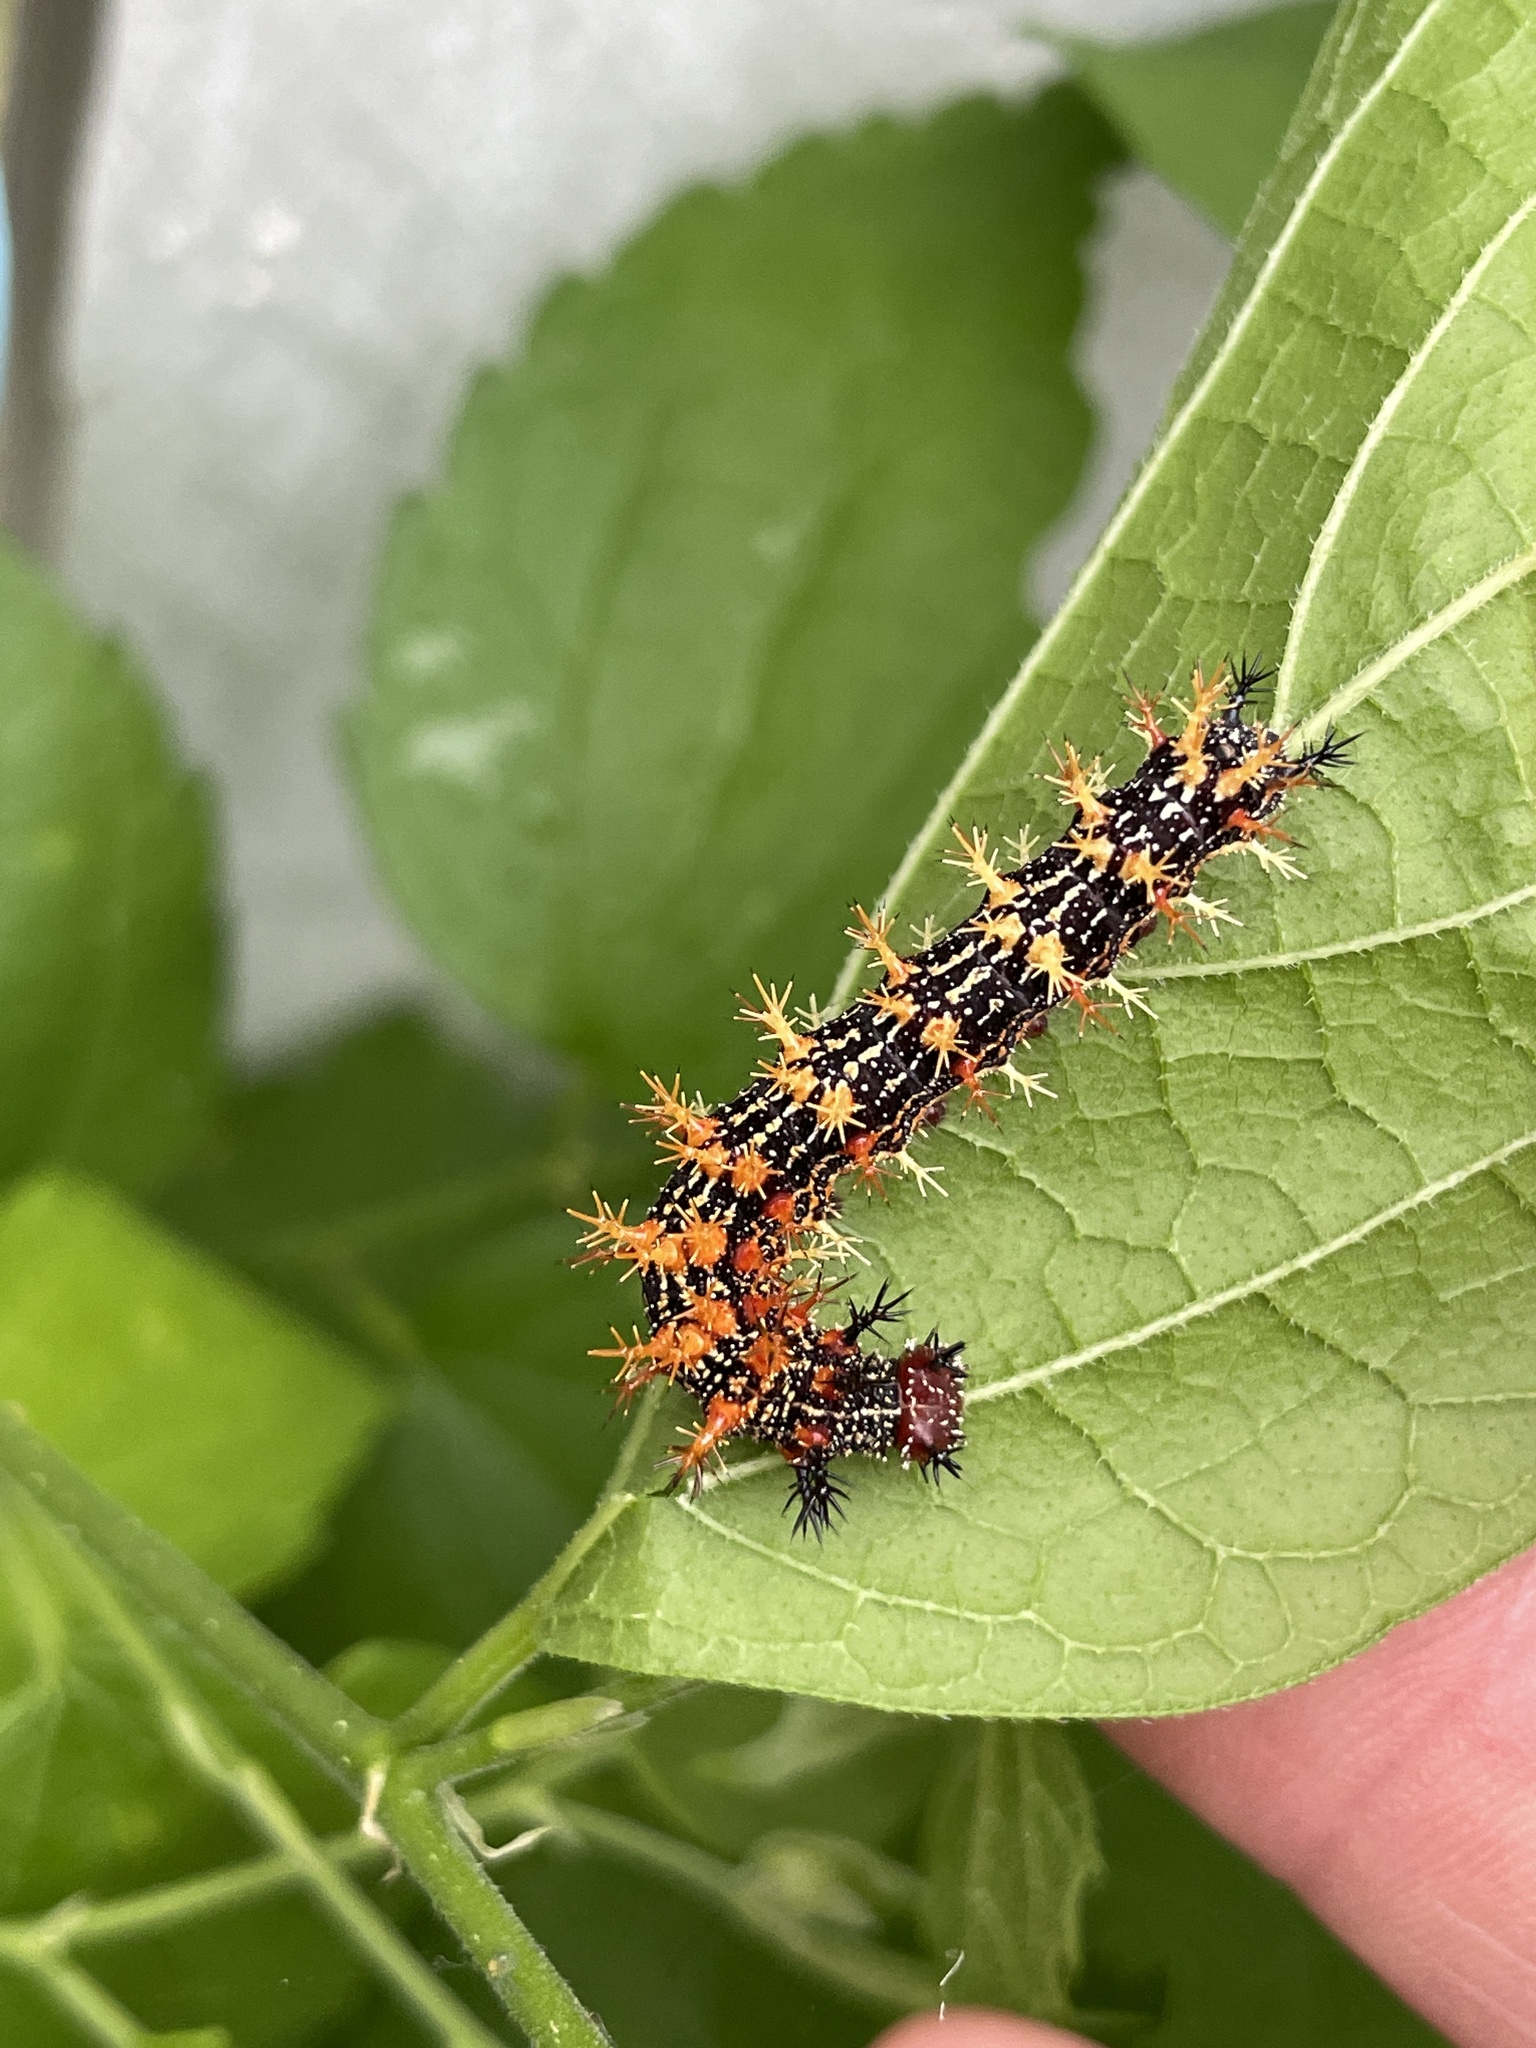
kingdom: Animalia
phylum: Arthropoda
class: Insecta
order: Lepidoptera
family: Nymphalidae
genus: Polygonia
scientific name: Polygonia interrogationis
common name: Question mark
